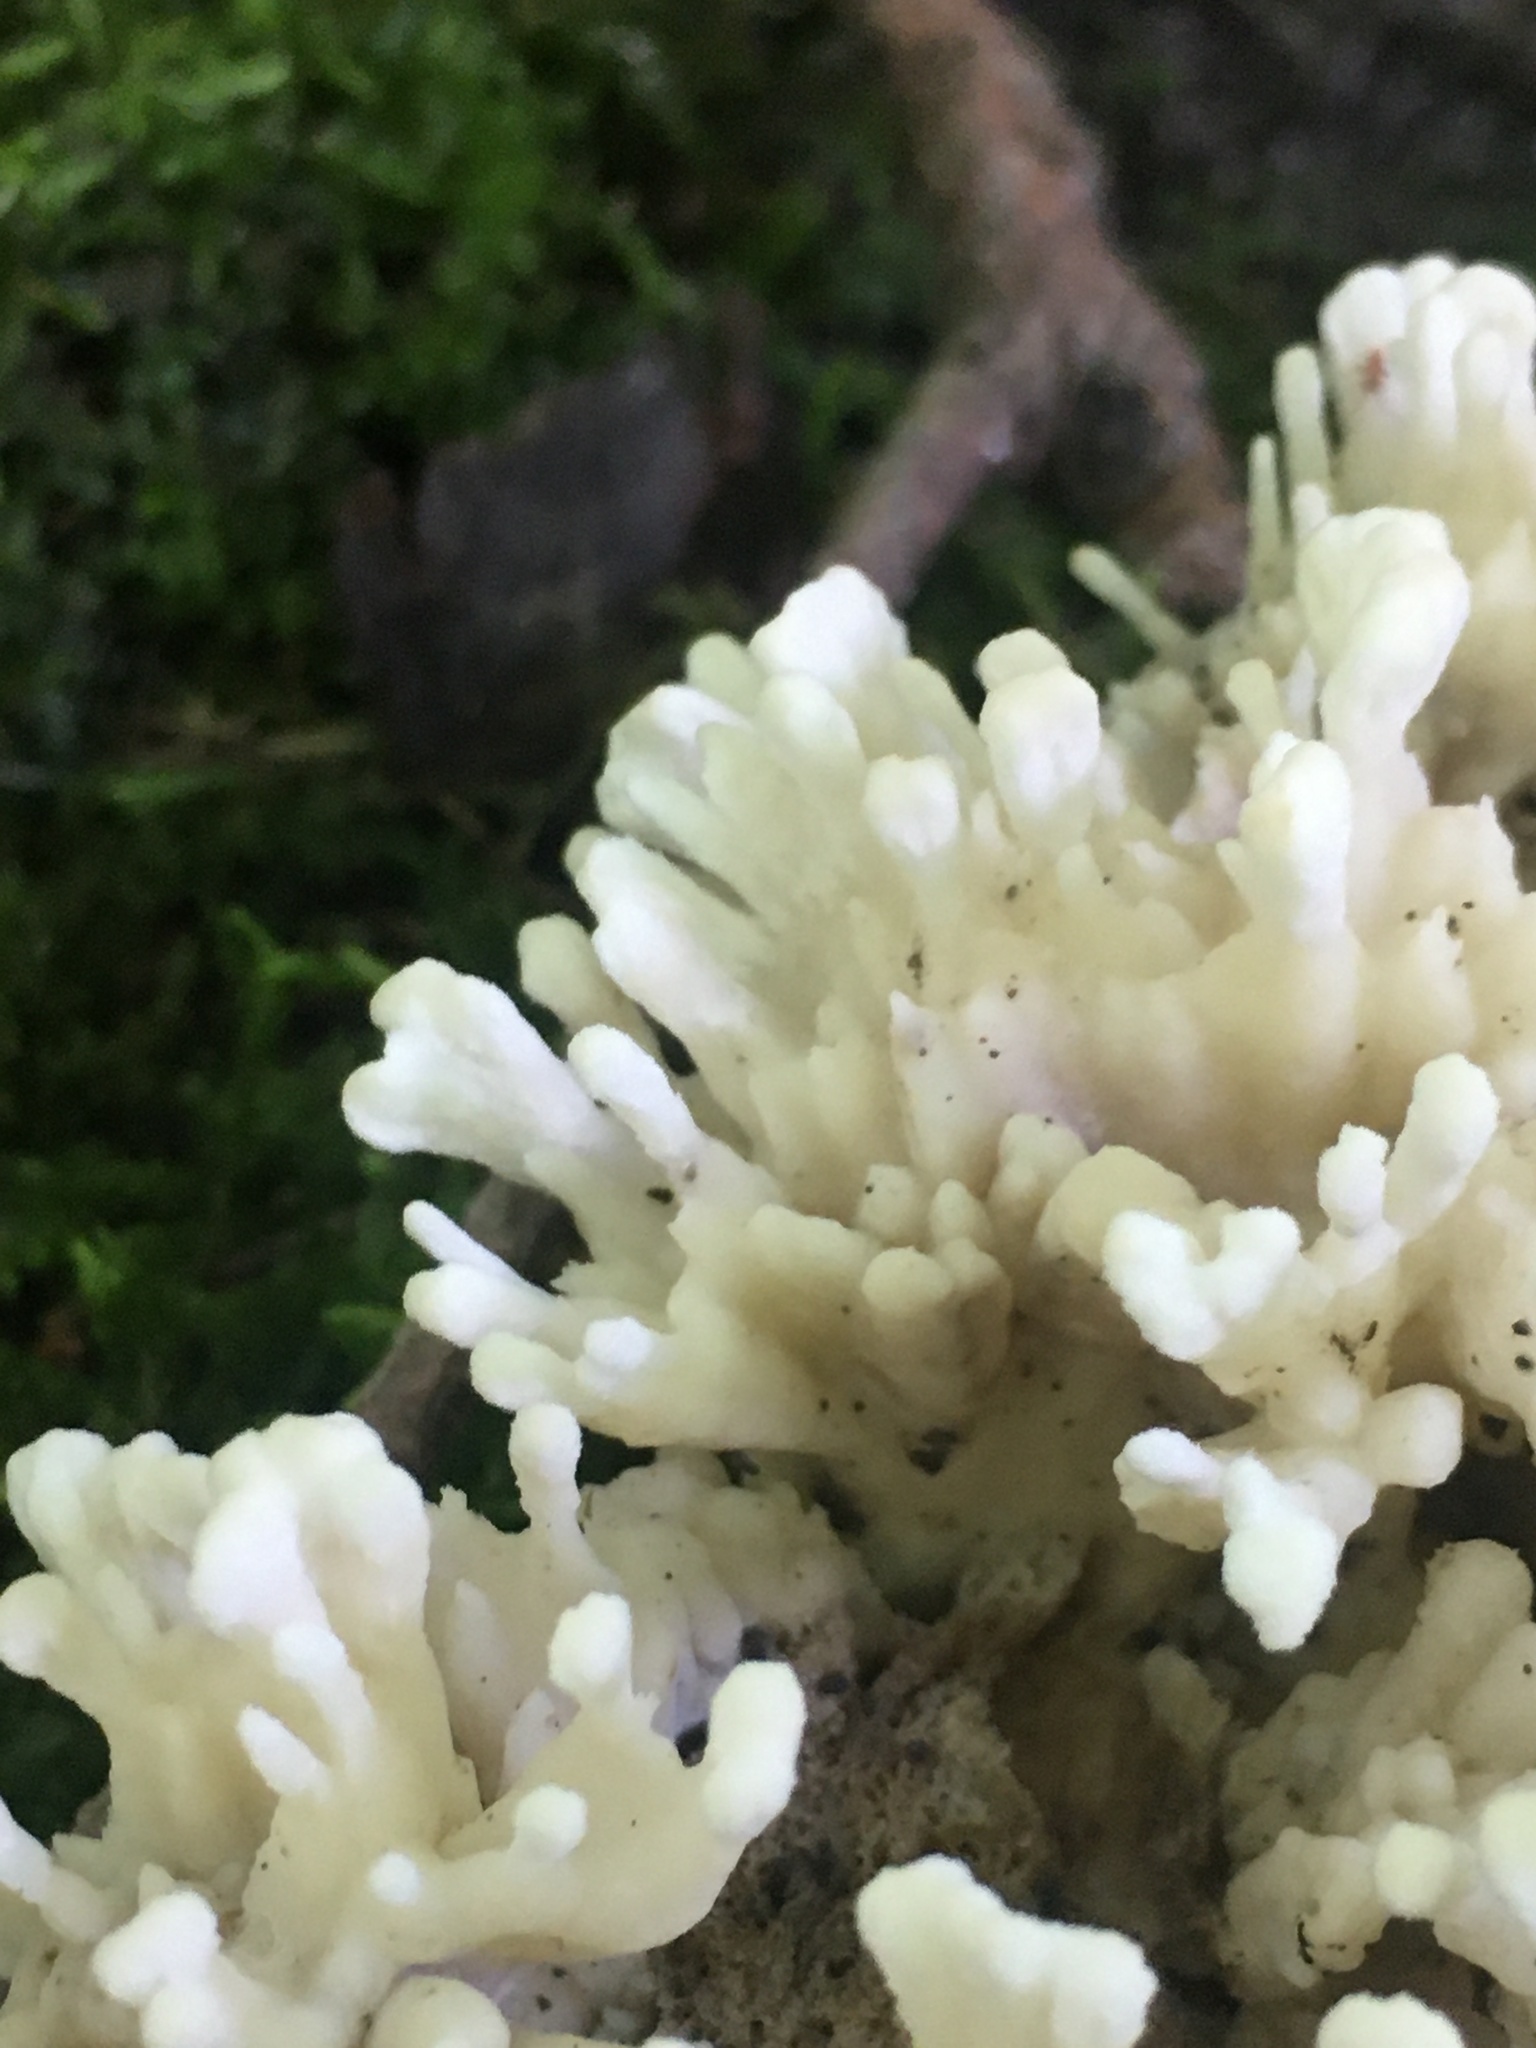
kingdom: Fungi
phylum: Basidiomycota
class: Agaricomycetes
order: Sebacinales
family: Sebacinaceae
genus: Sebacina
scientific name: Sebacina schweinitzii
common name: Jellied false coral fungus
